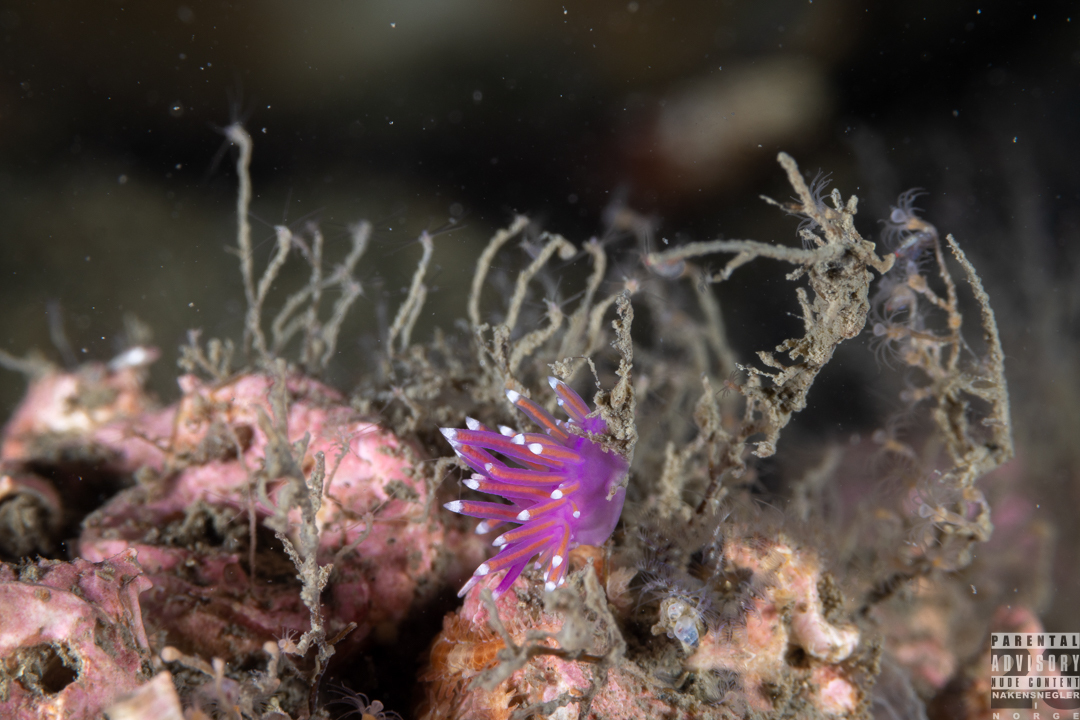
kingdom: Animalia
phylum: Mollusca
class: Gastropoda
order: Nudibranchia
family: Flabellinidae
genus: Edmundsella
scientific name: Edmundsella pedata
